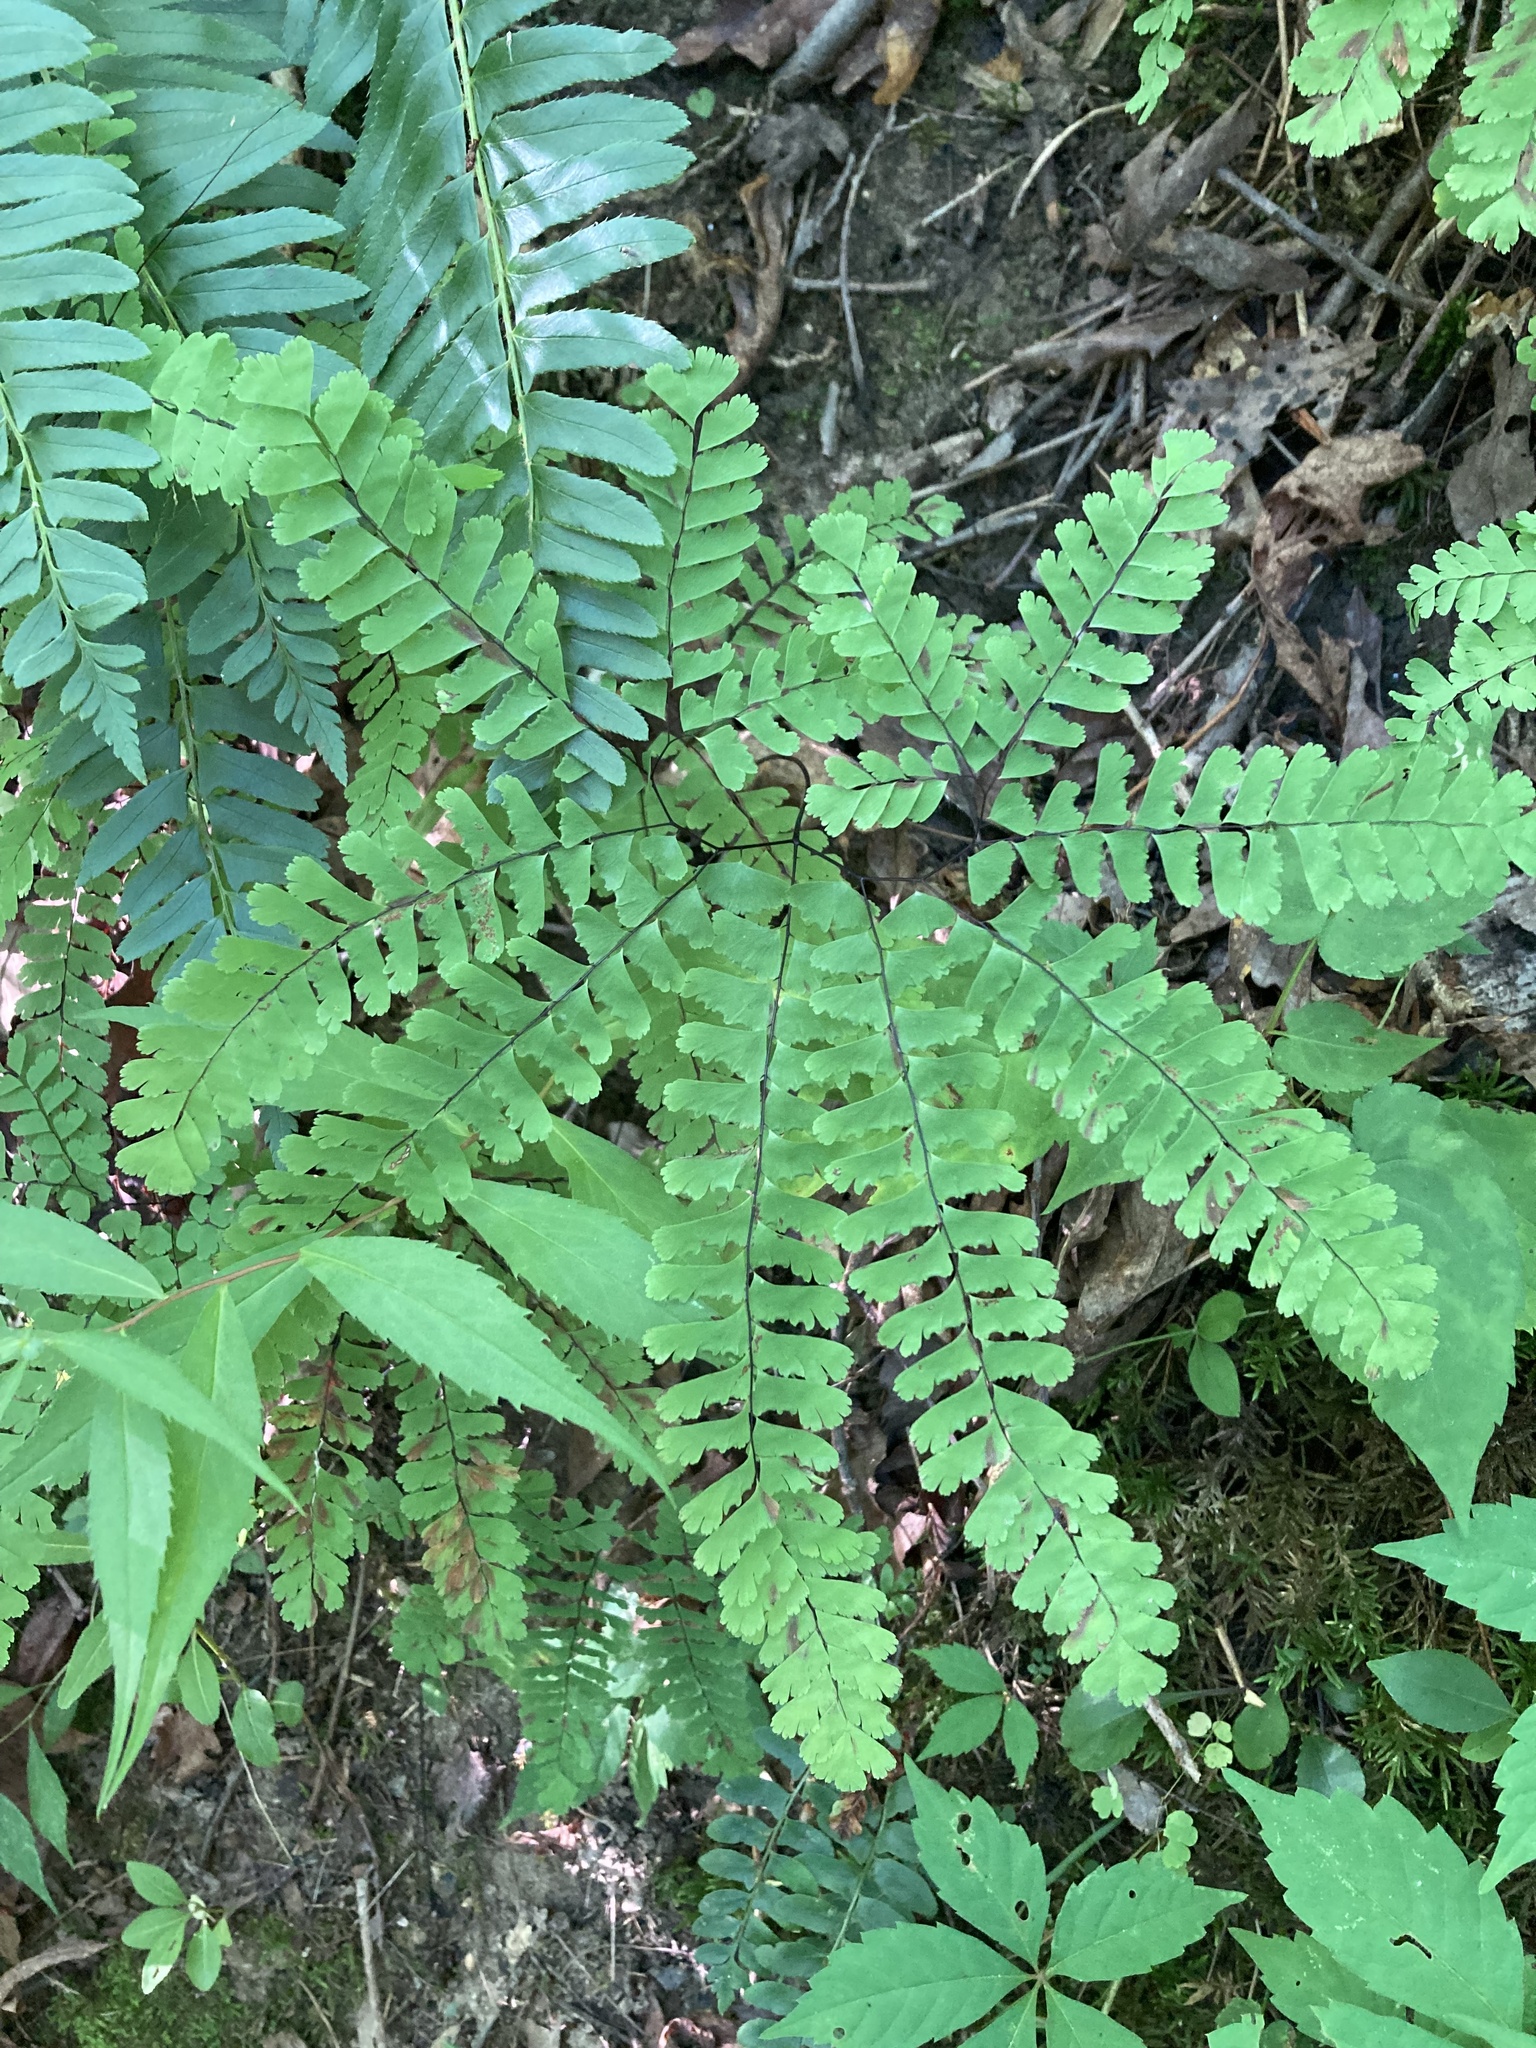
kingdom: Plantae
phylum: Tracheophyta
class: Polypodiopsida
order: Polypodiales
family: Pteridaceae
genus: Adiantum
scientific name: Adiantum pedatum
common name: Five-finger fern
